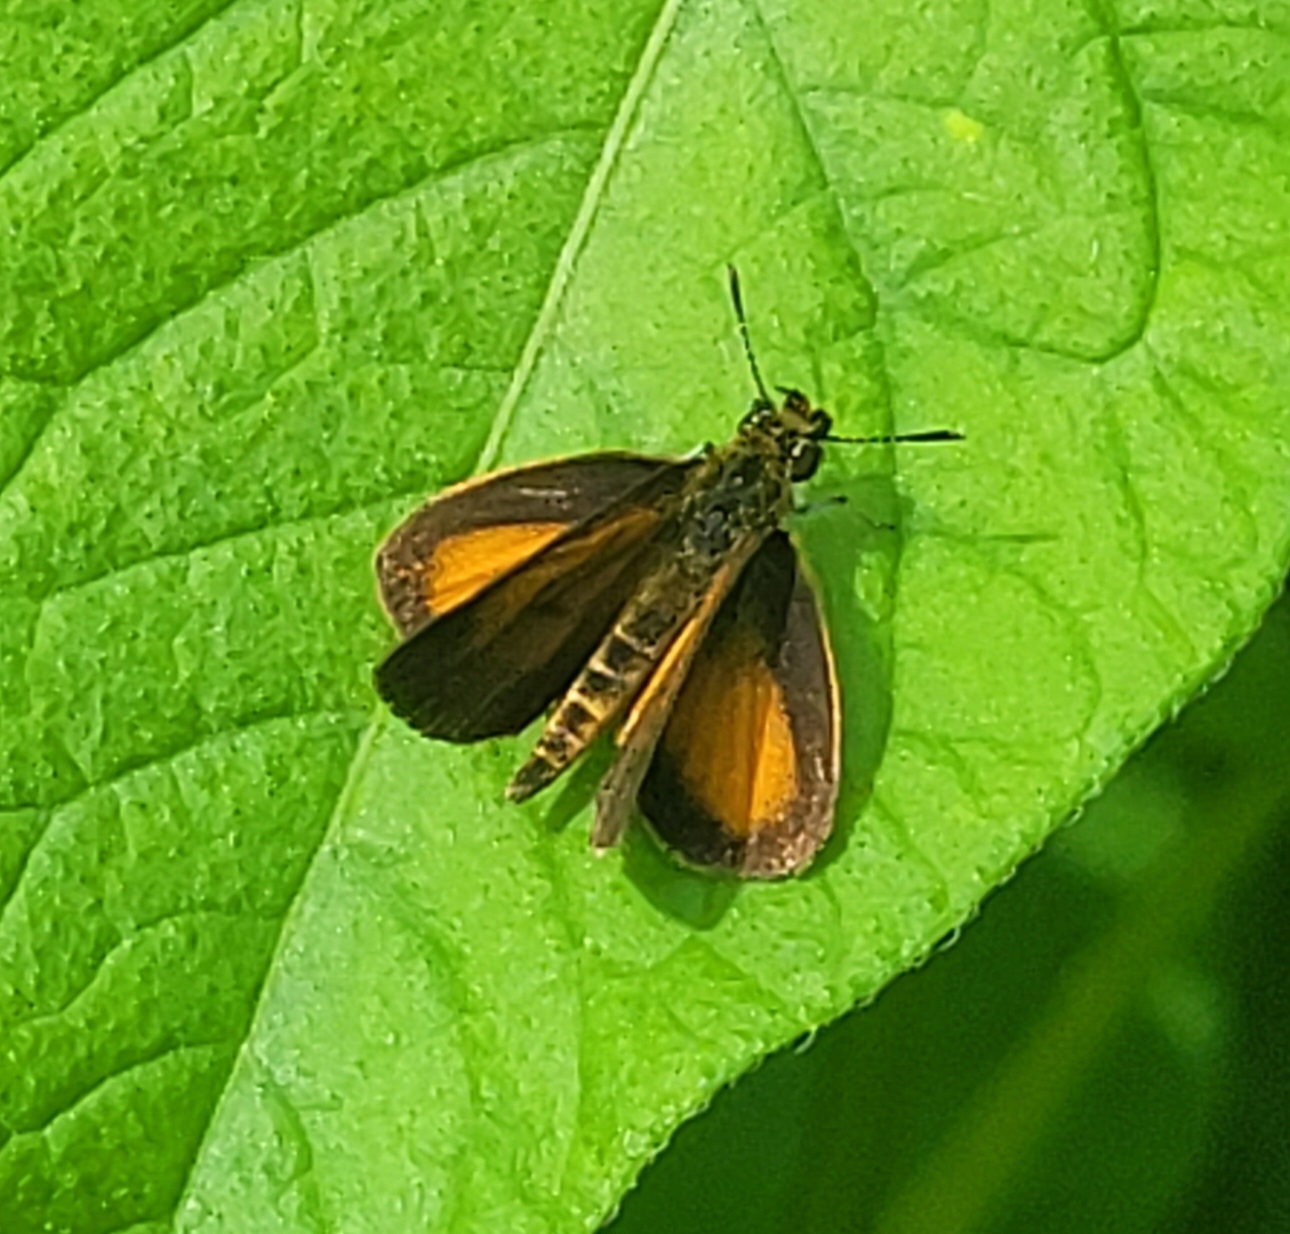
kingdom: Animalia
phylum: Arthropoda
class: Insecta
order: Lepidoptera
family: Hesperiidae
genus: Ancyloxypha
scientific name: Ancyloxypha numitor
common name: Least skipper
